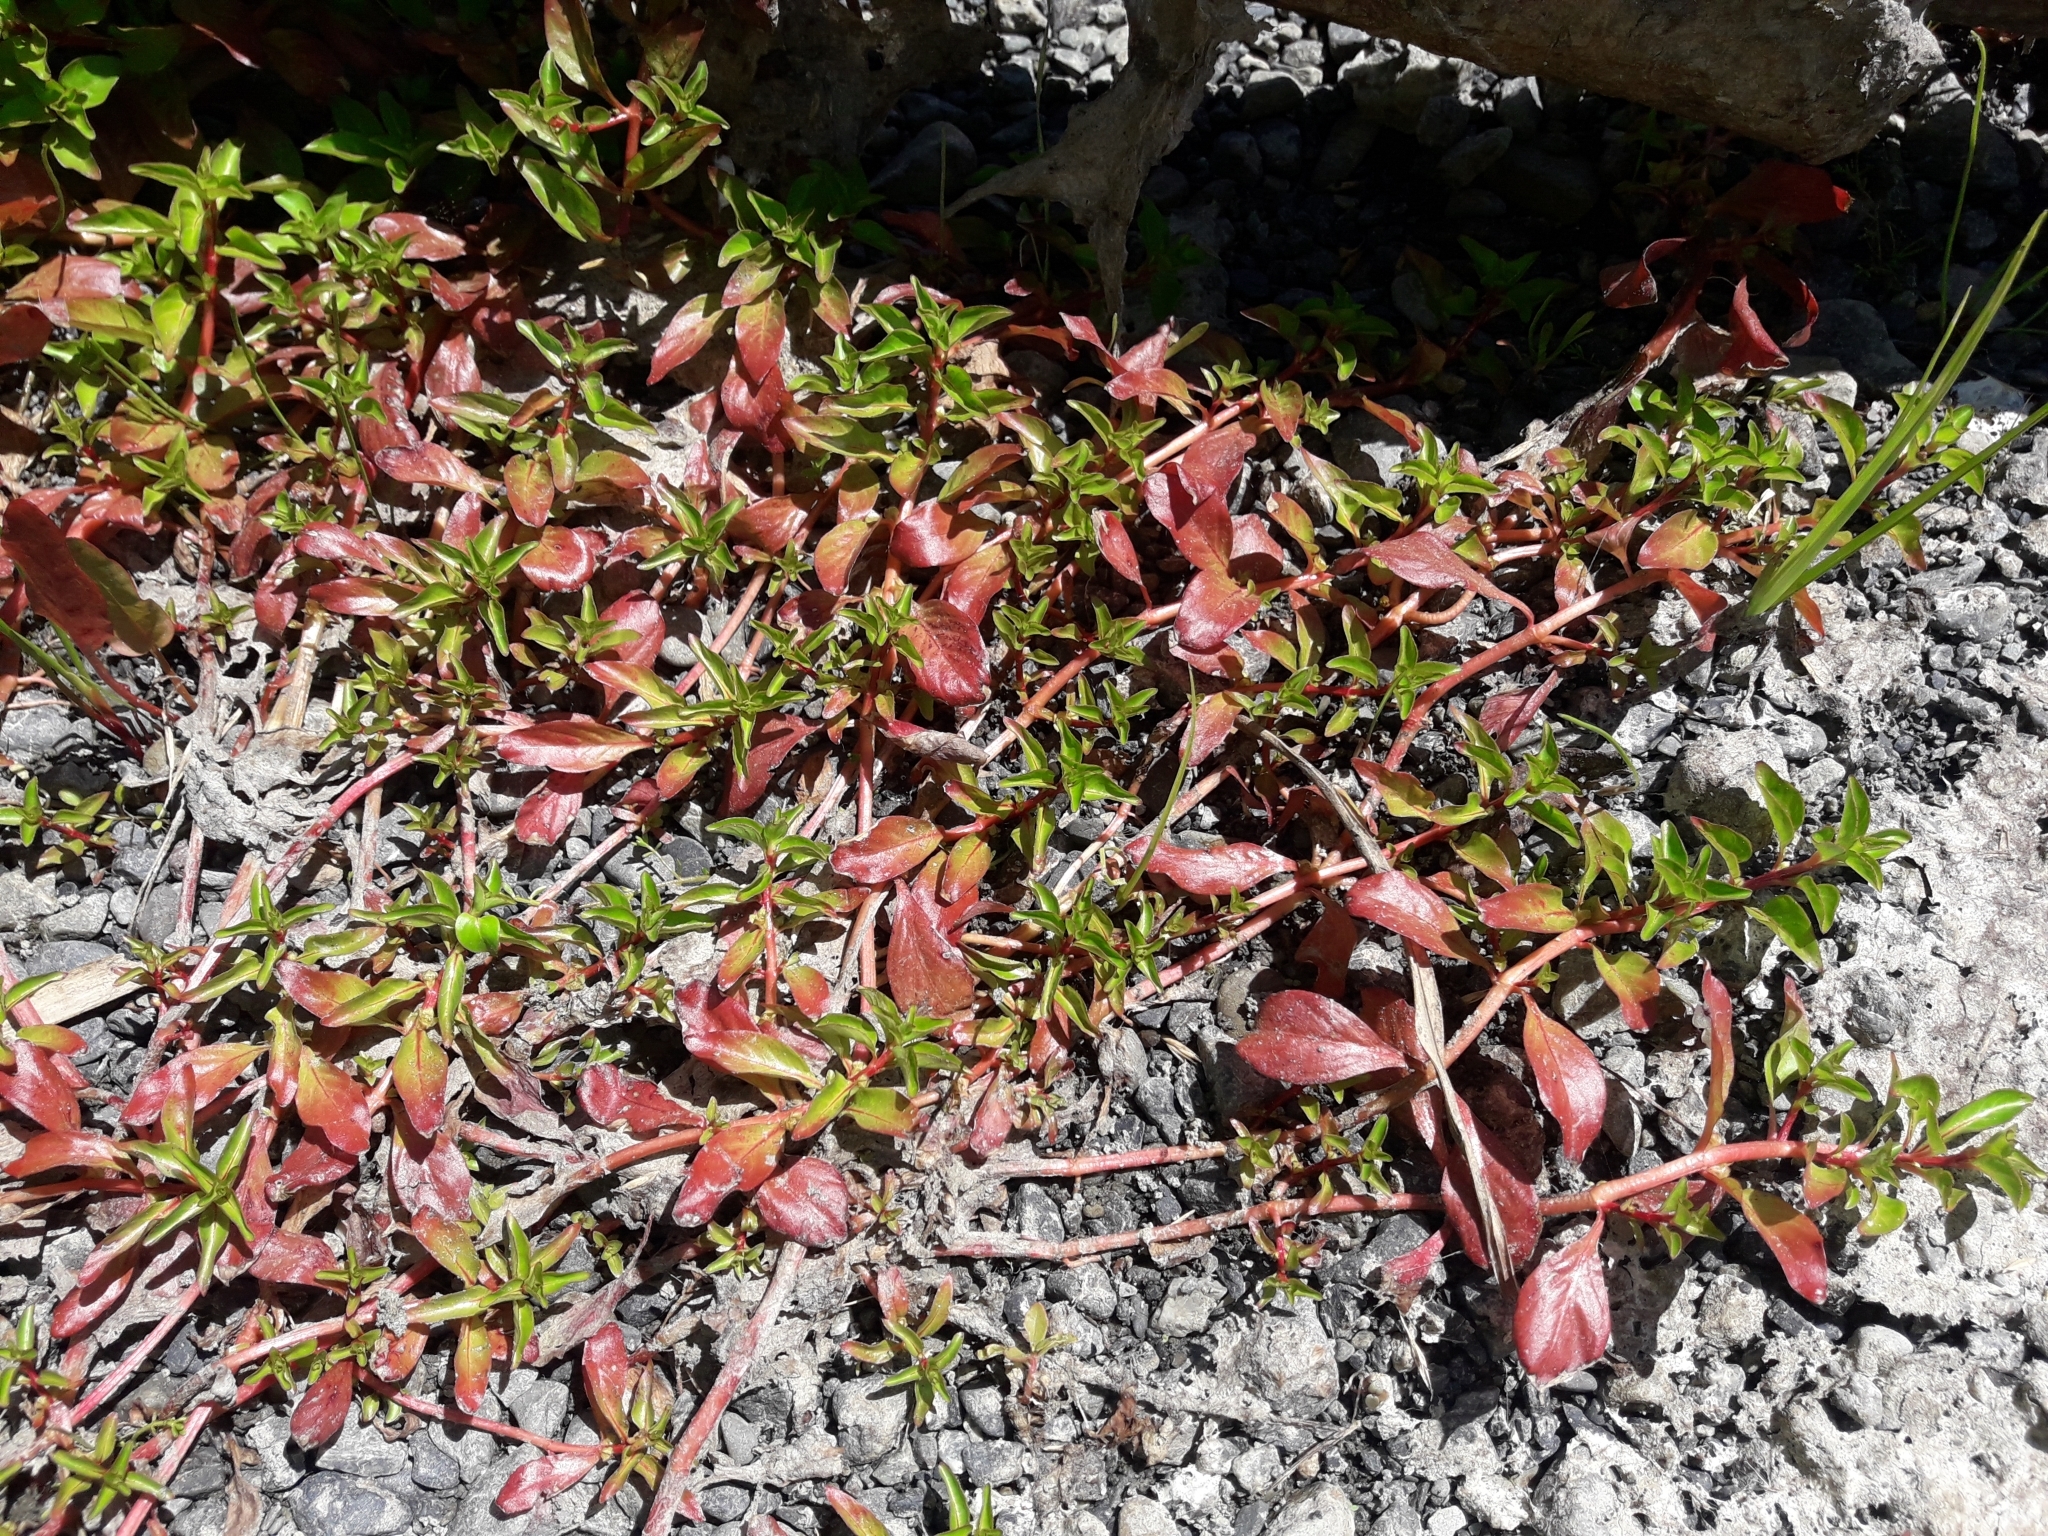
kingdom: Plantae
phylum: Tracheophyta
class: Magnoliopsida
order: Myrtales
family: Onagraceae
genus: Ludwigia
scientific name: Ludwigia palustris
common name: Hampshire-purslane
